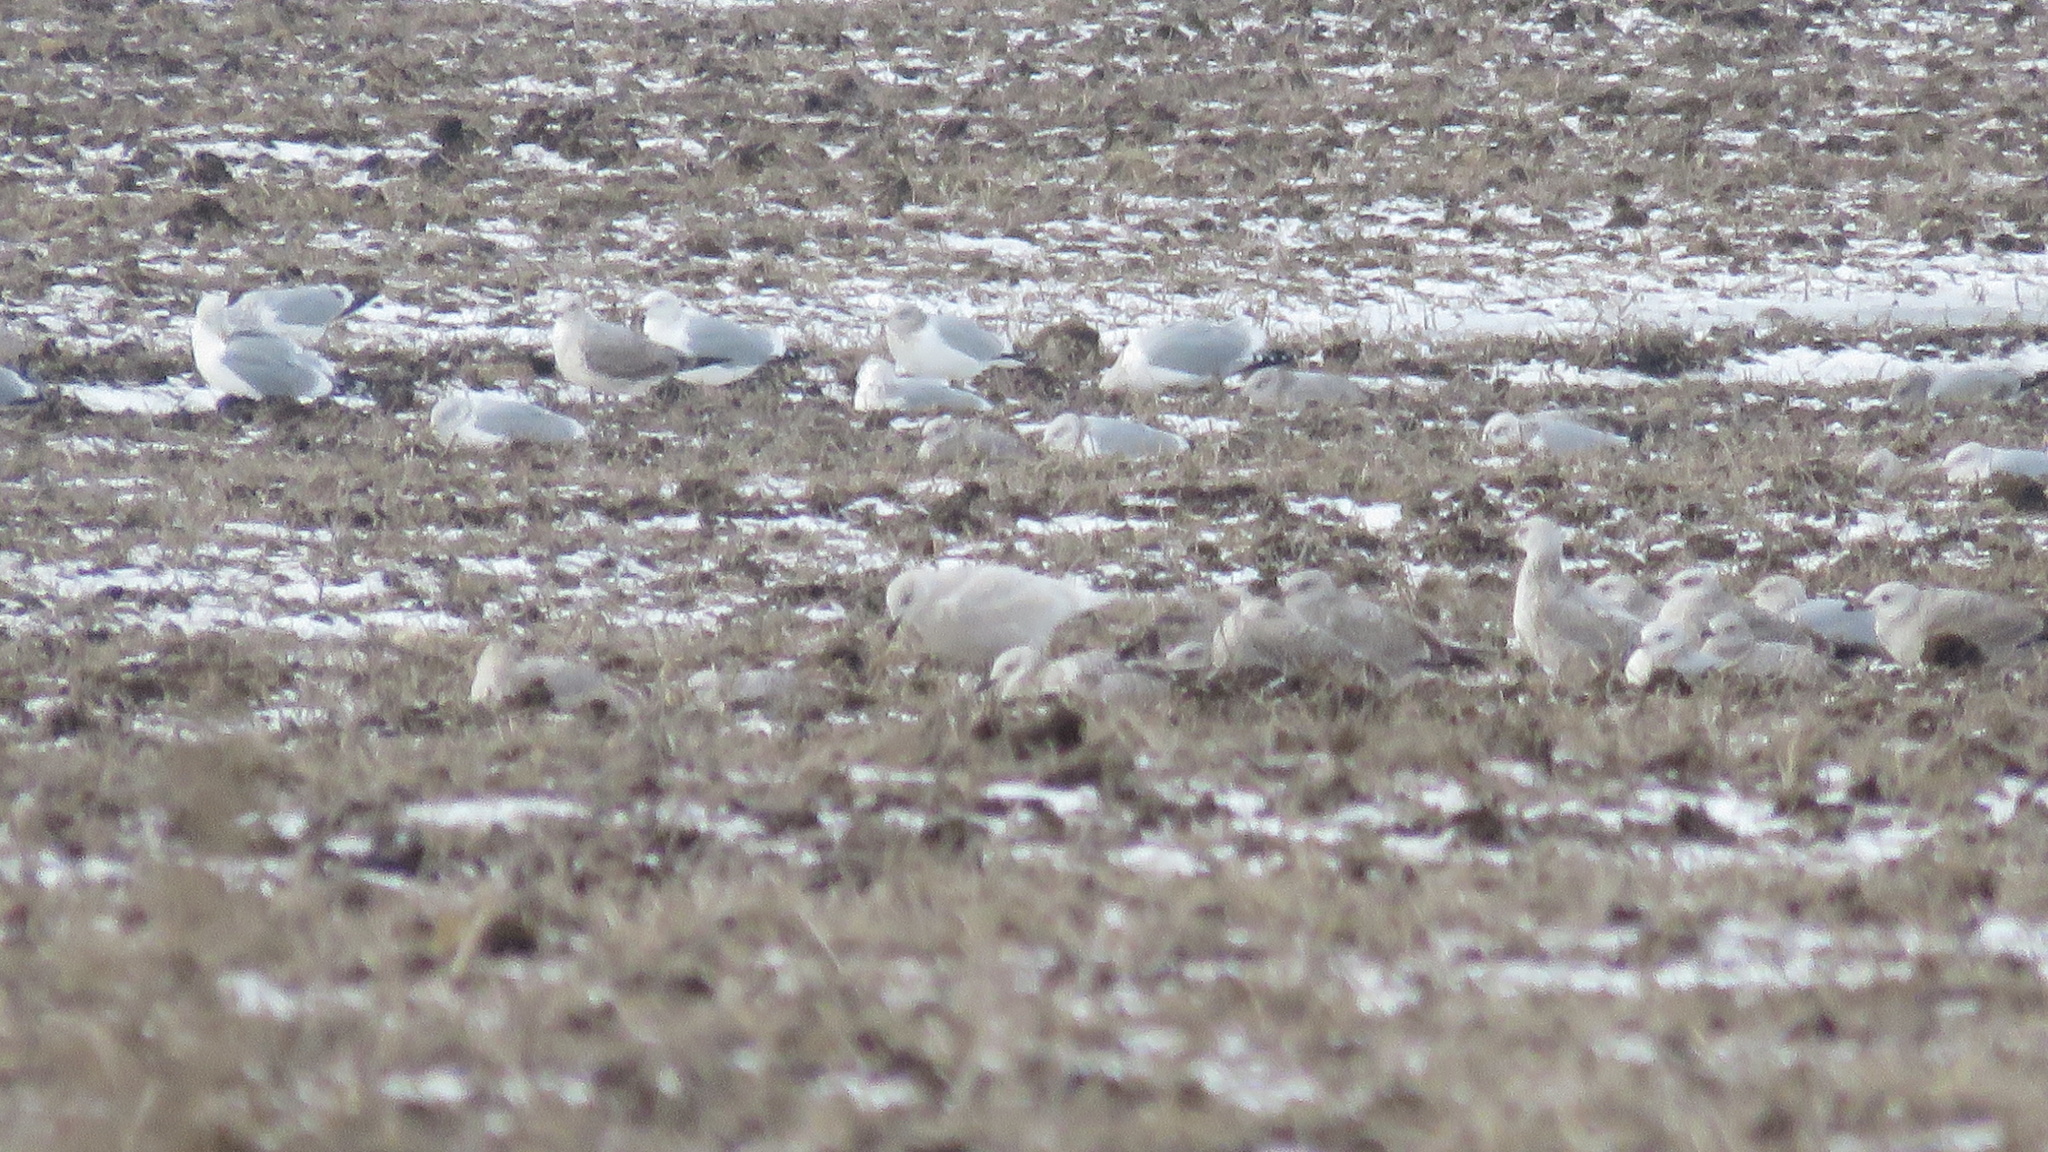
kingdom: Animalia
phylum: Chordata
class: Aves
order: Charadriiformes
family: Laridae
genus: Larus
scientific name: Larus glaucoides
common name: Iceland gull
